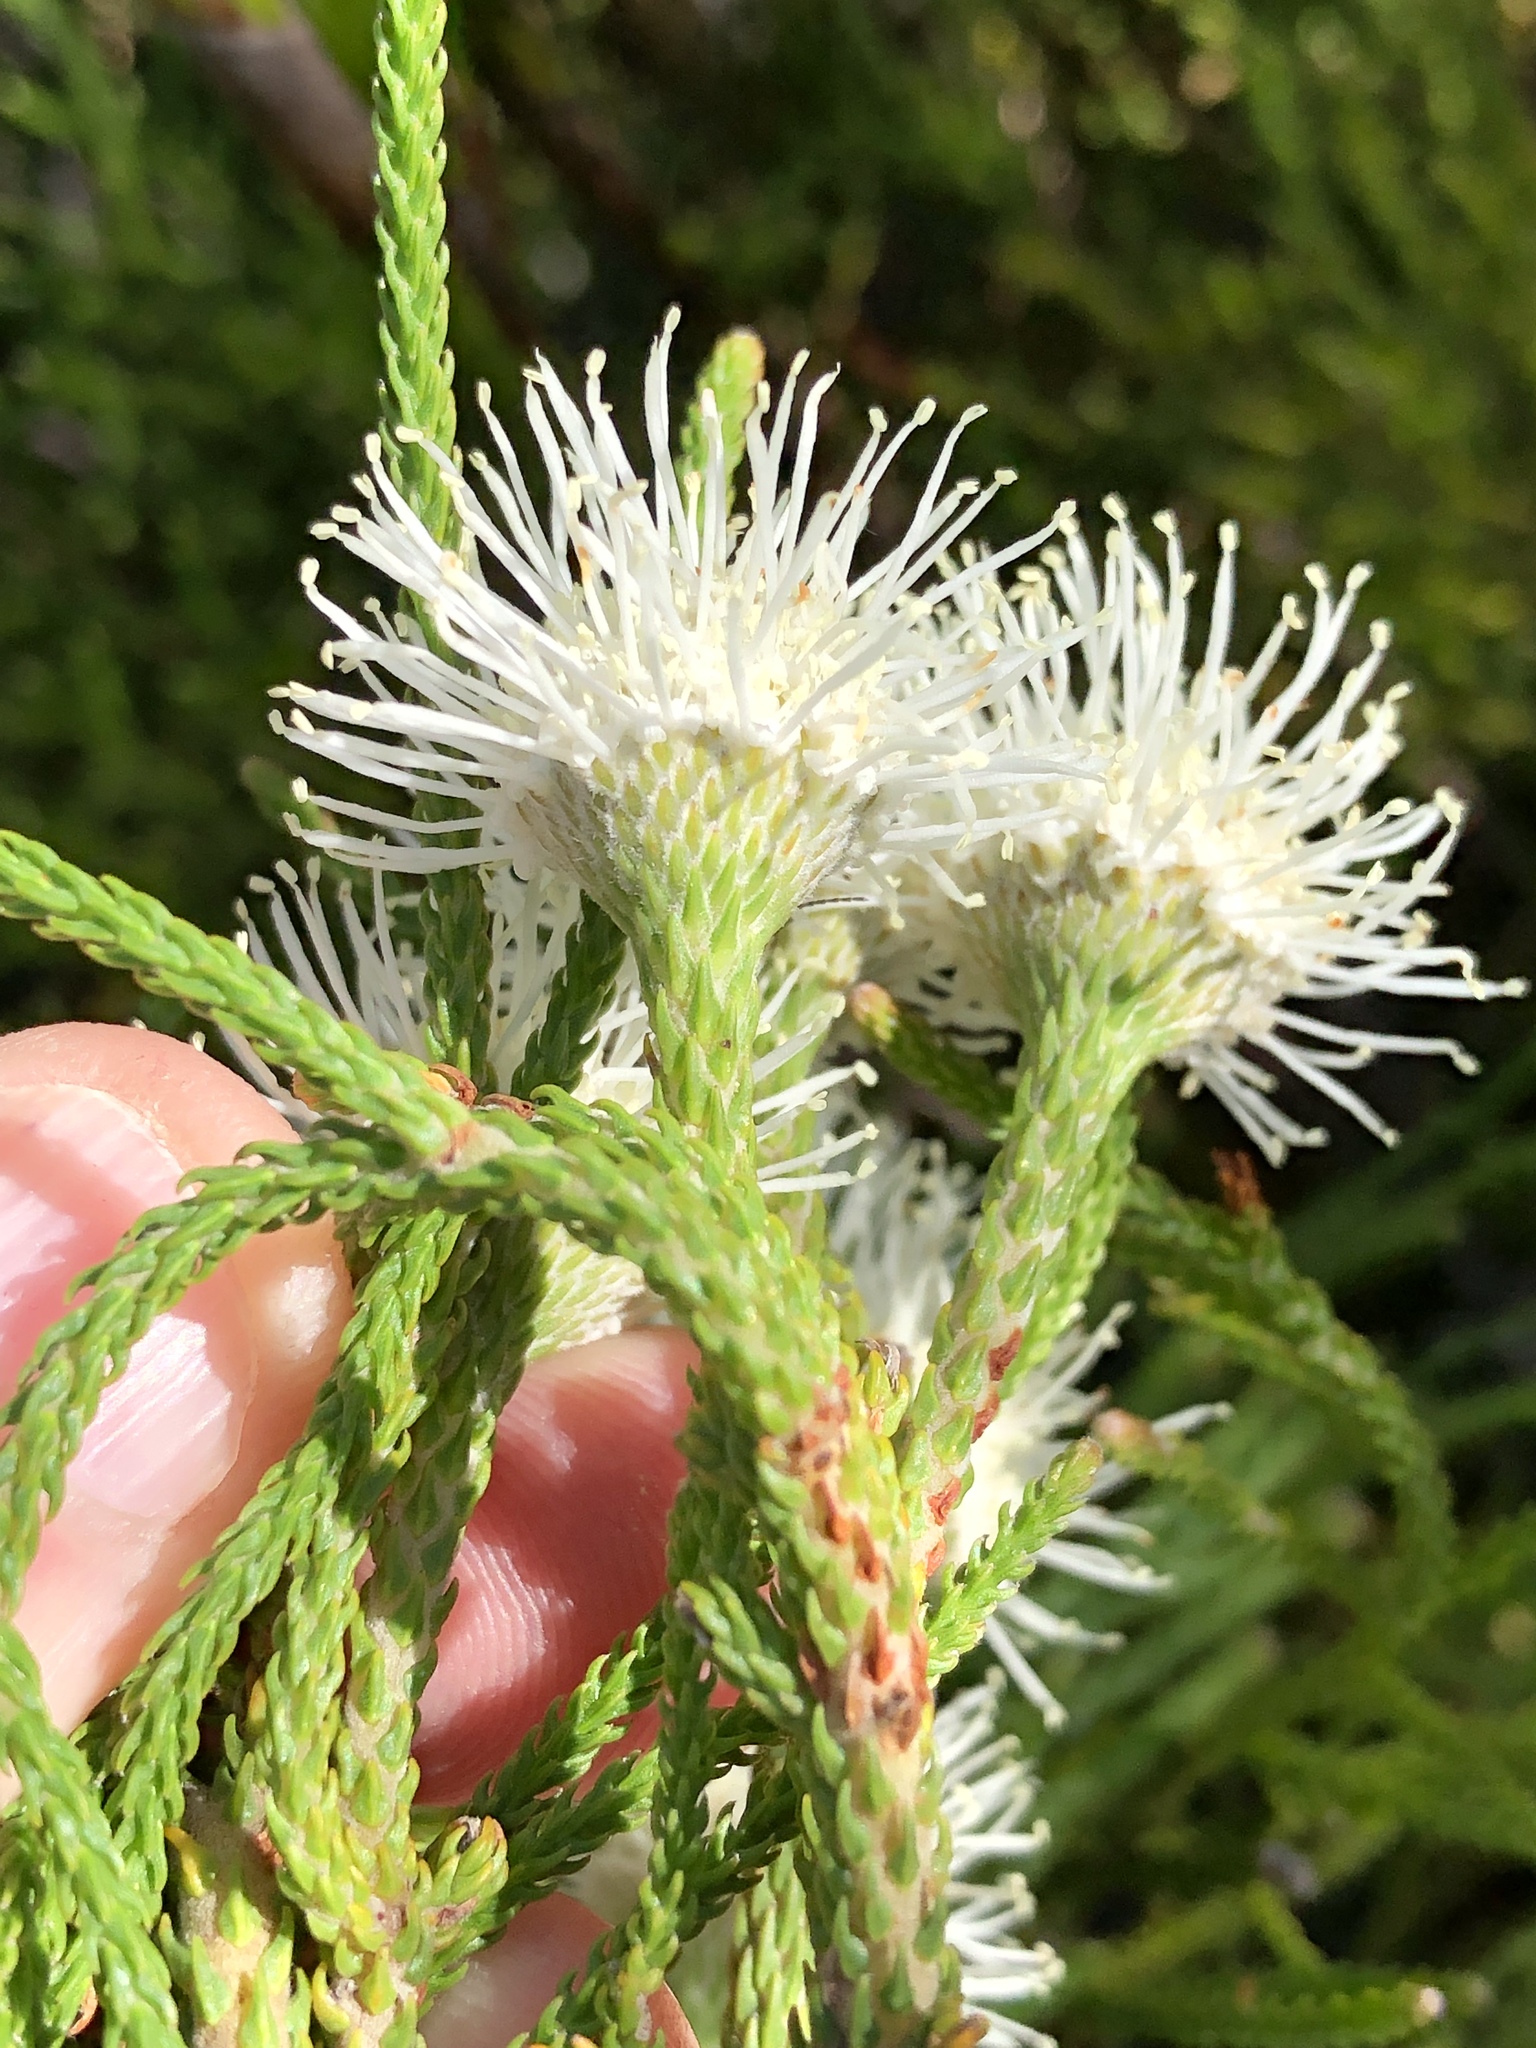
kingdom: Plantae
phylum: Tracheophyta
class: Magnoliopsida
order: Bruniales
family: Bruniaceae
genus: Brunia
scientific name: Brunia noduliflora
